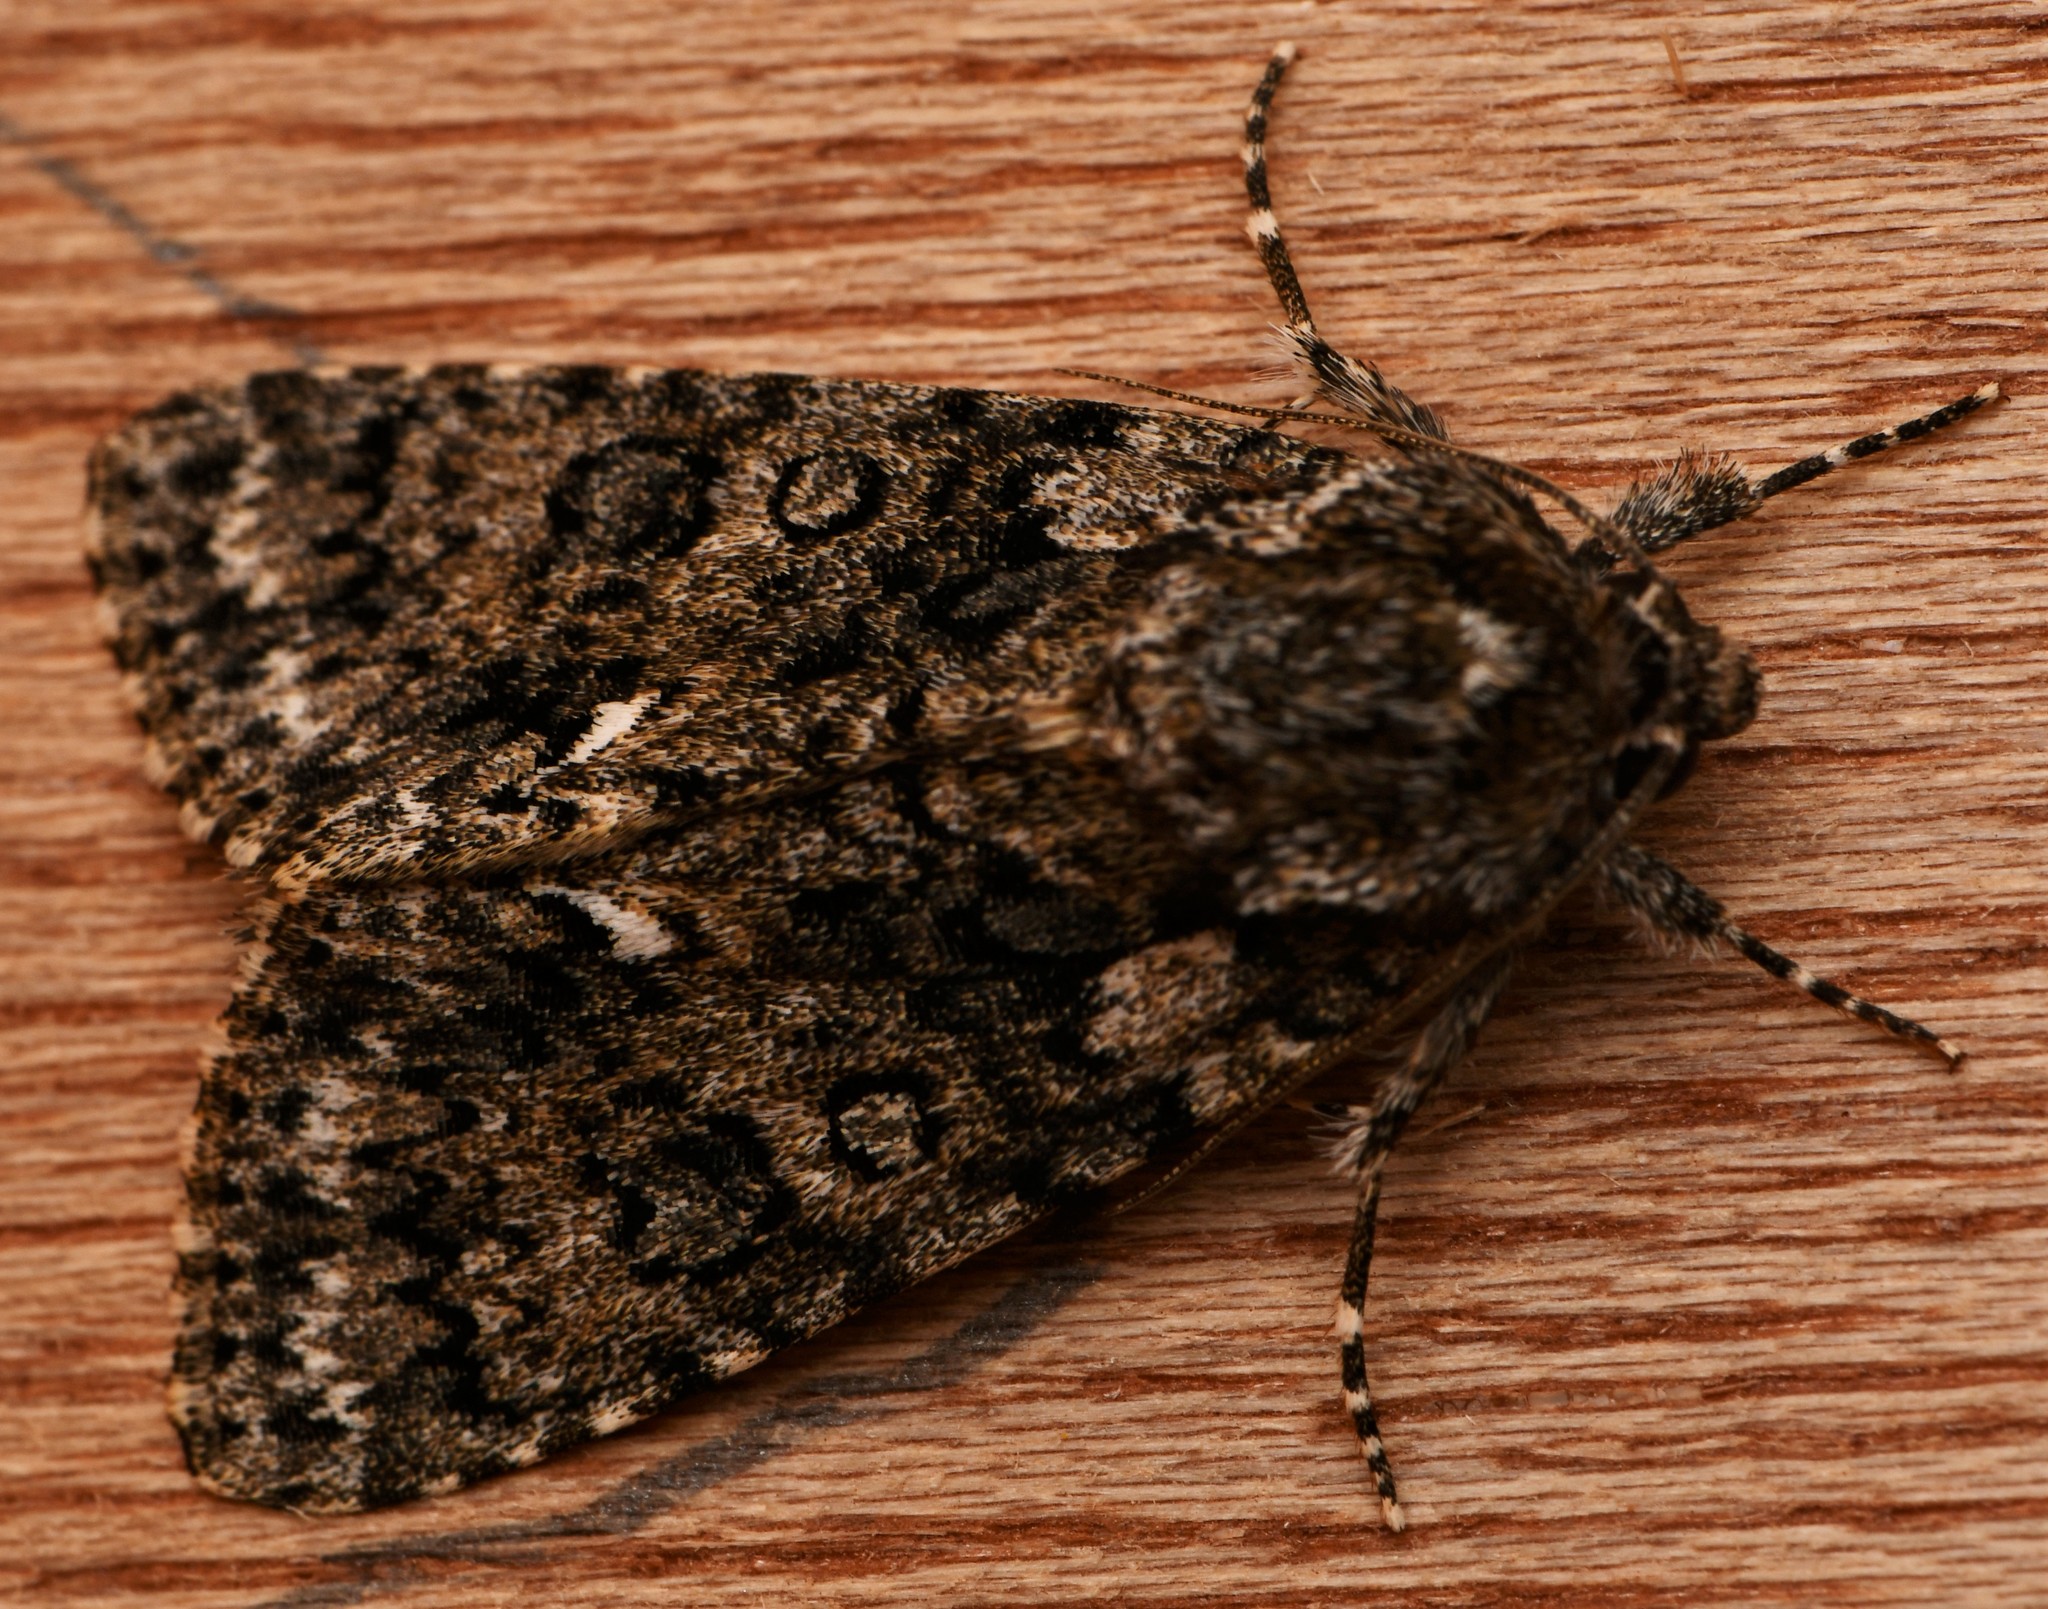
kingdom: Animalia
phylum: Arthropoda
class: Insecta
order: Lepidoptera
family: Noctuidae
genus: Acronicta
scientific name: Acronicta rumicis
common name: Knot grass
